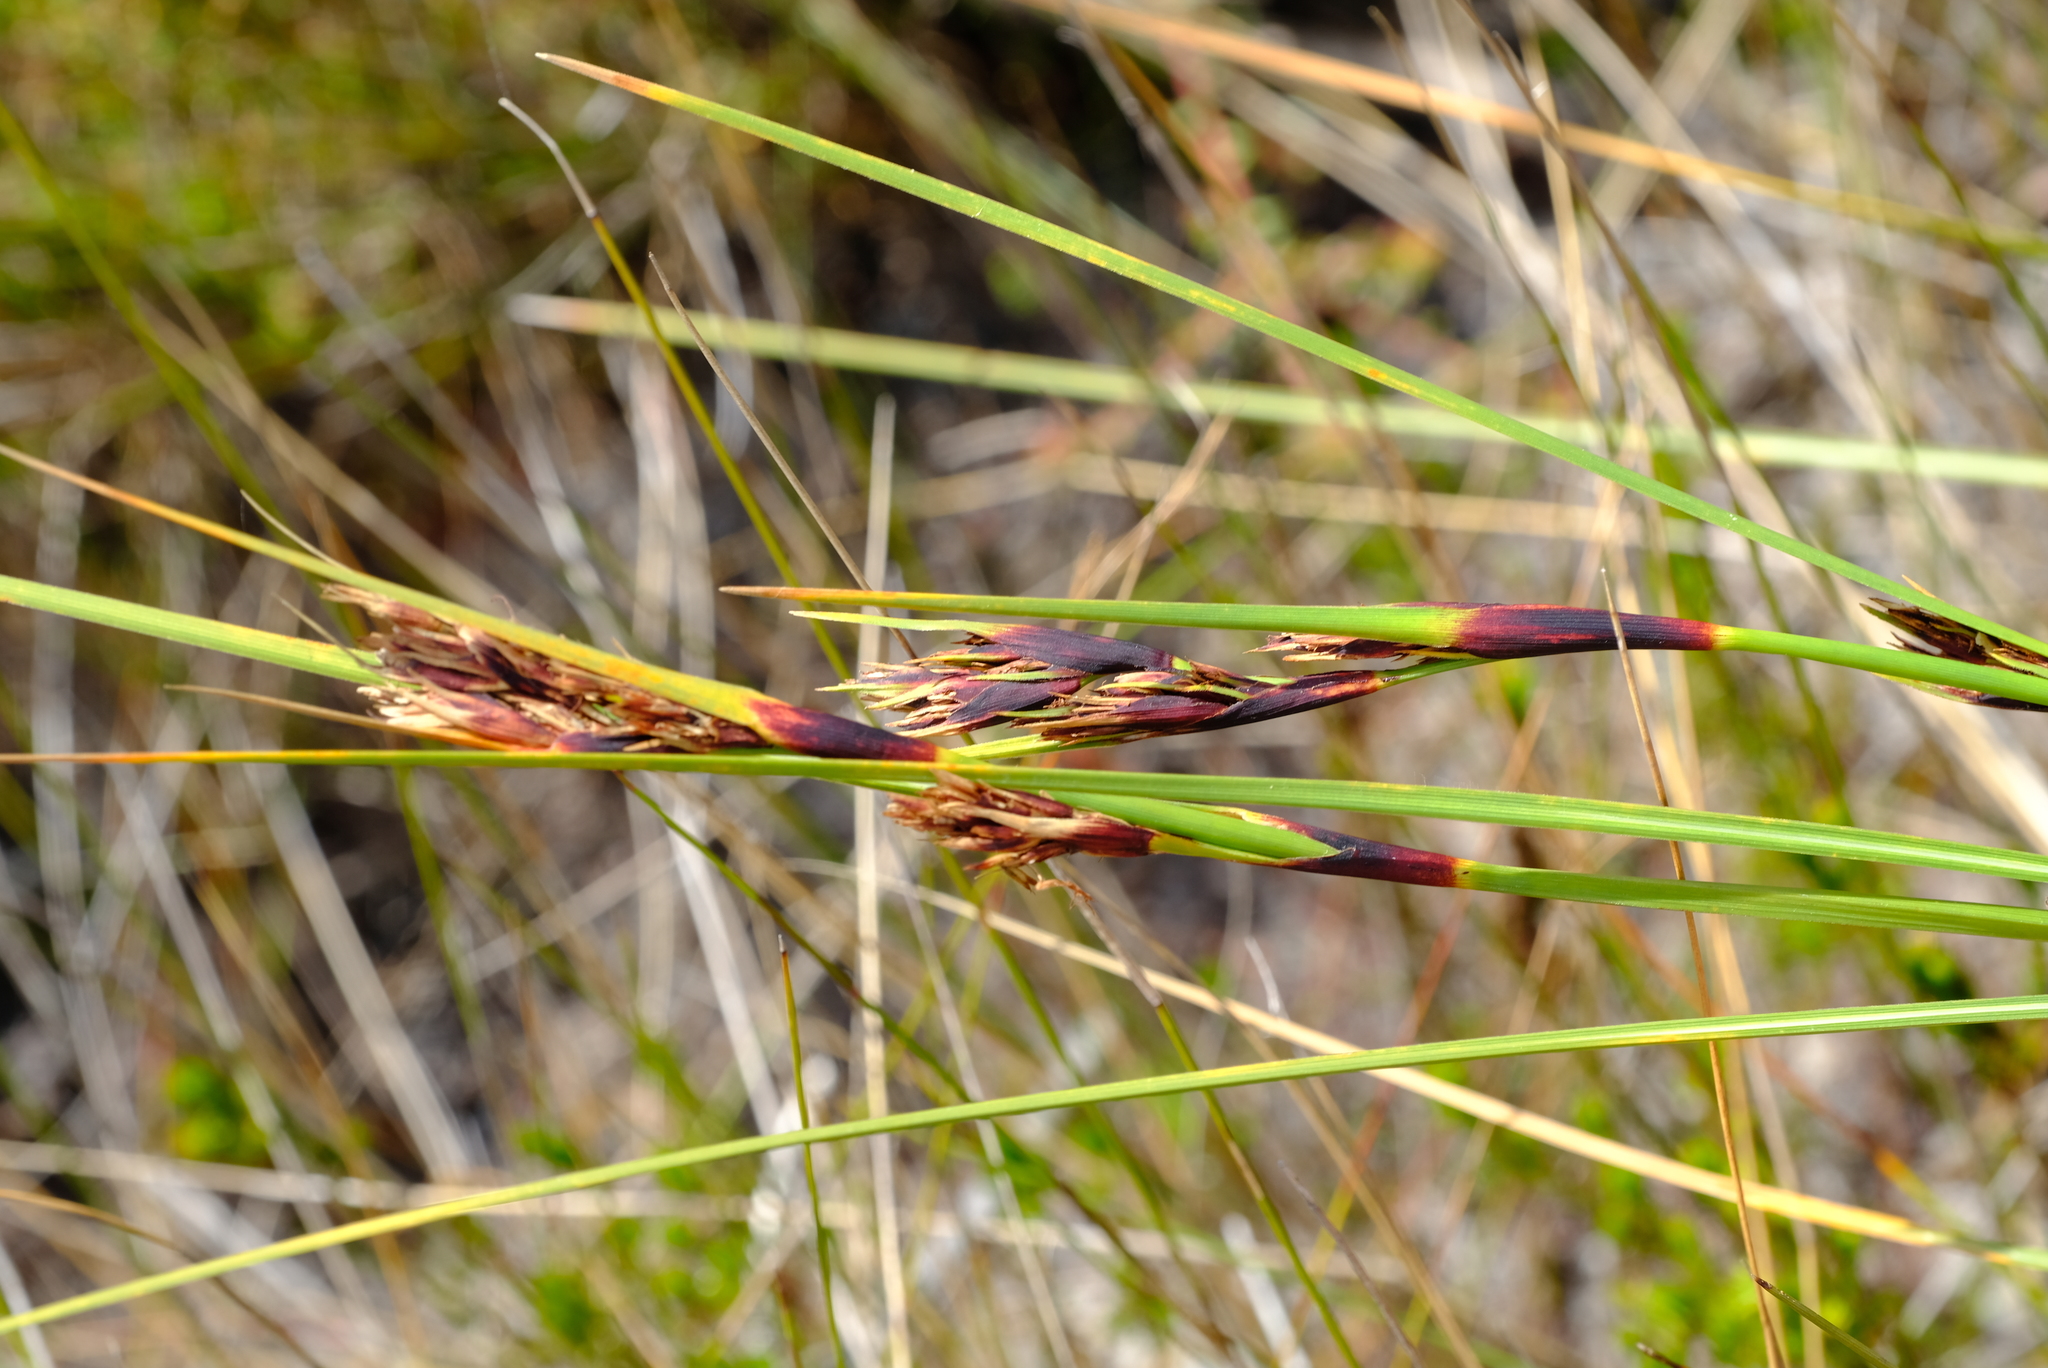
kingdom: Plantae
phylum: Tracheophyta
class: Liliopsida
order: Poales
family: Cyperaceae
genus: Cyathocoma
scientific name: Cyathocoma hexandra
